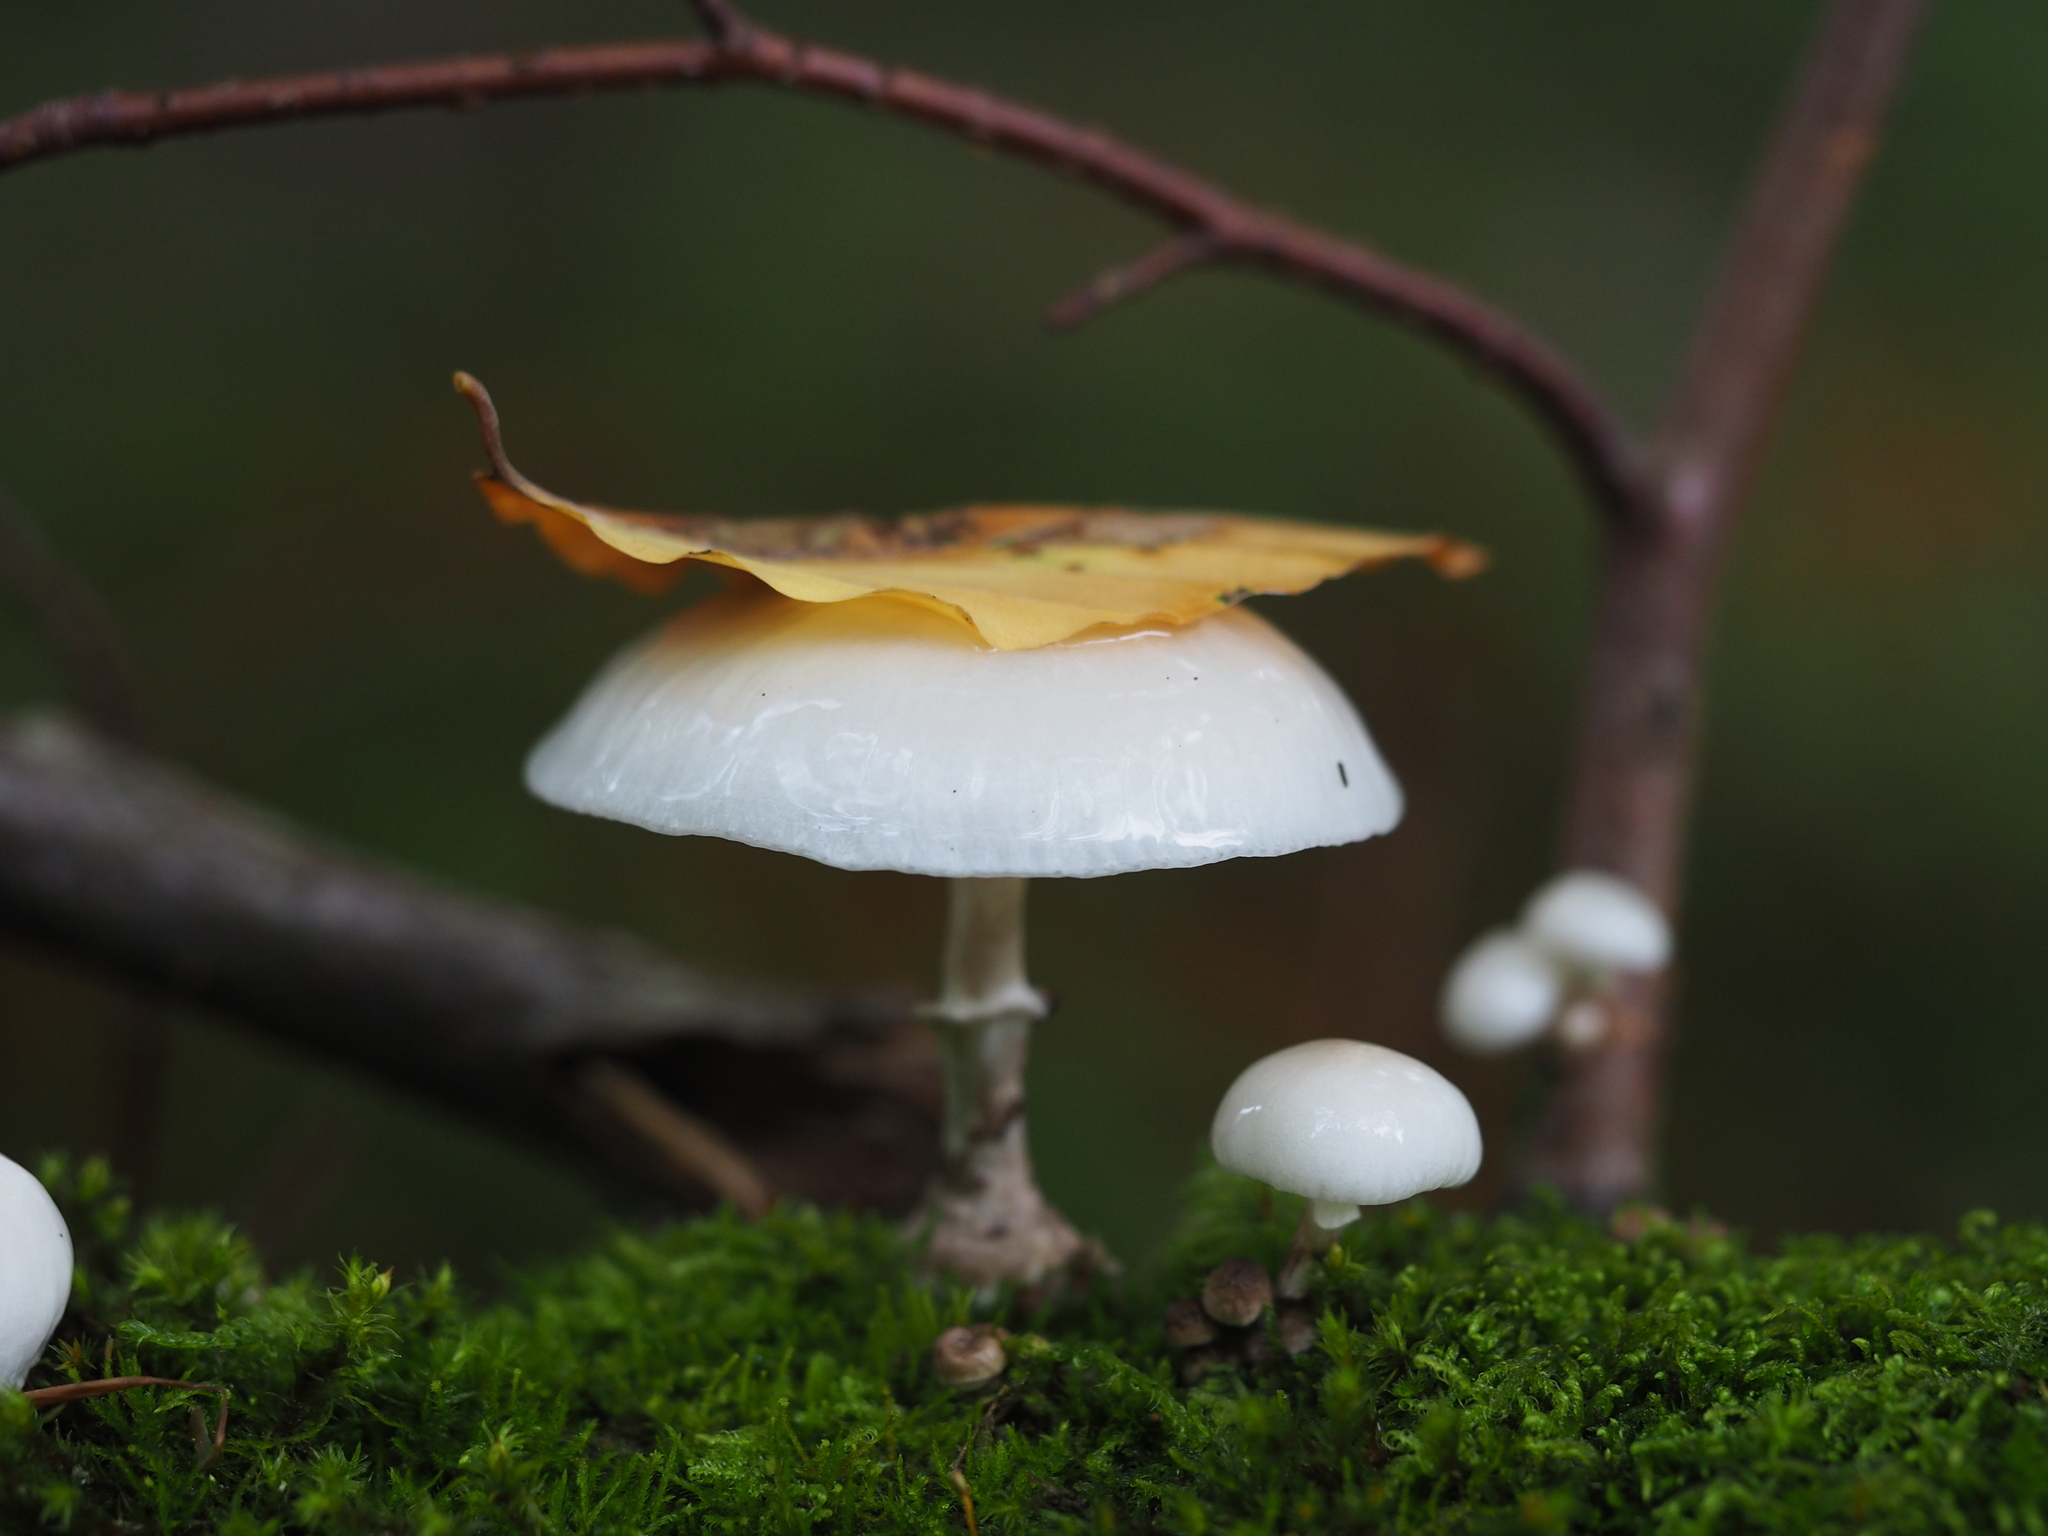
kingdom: Fungi
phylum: Basidiomycota
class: Agaricomycetes
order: Agaricales
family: Physalacriaceae
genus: Mucidula
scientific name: Mucidula mucida
